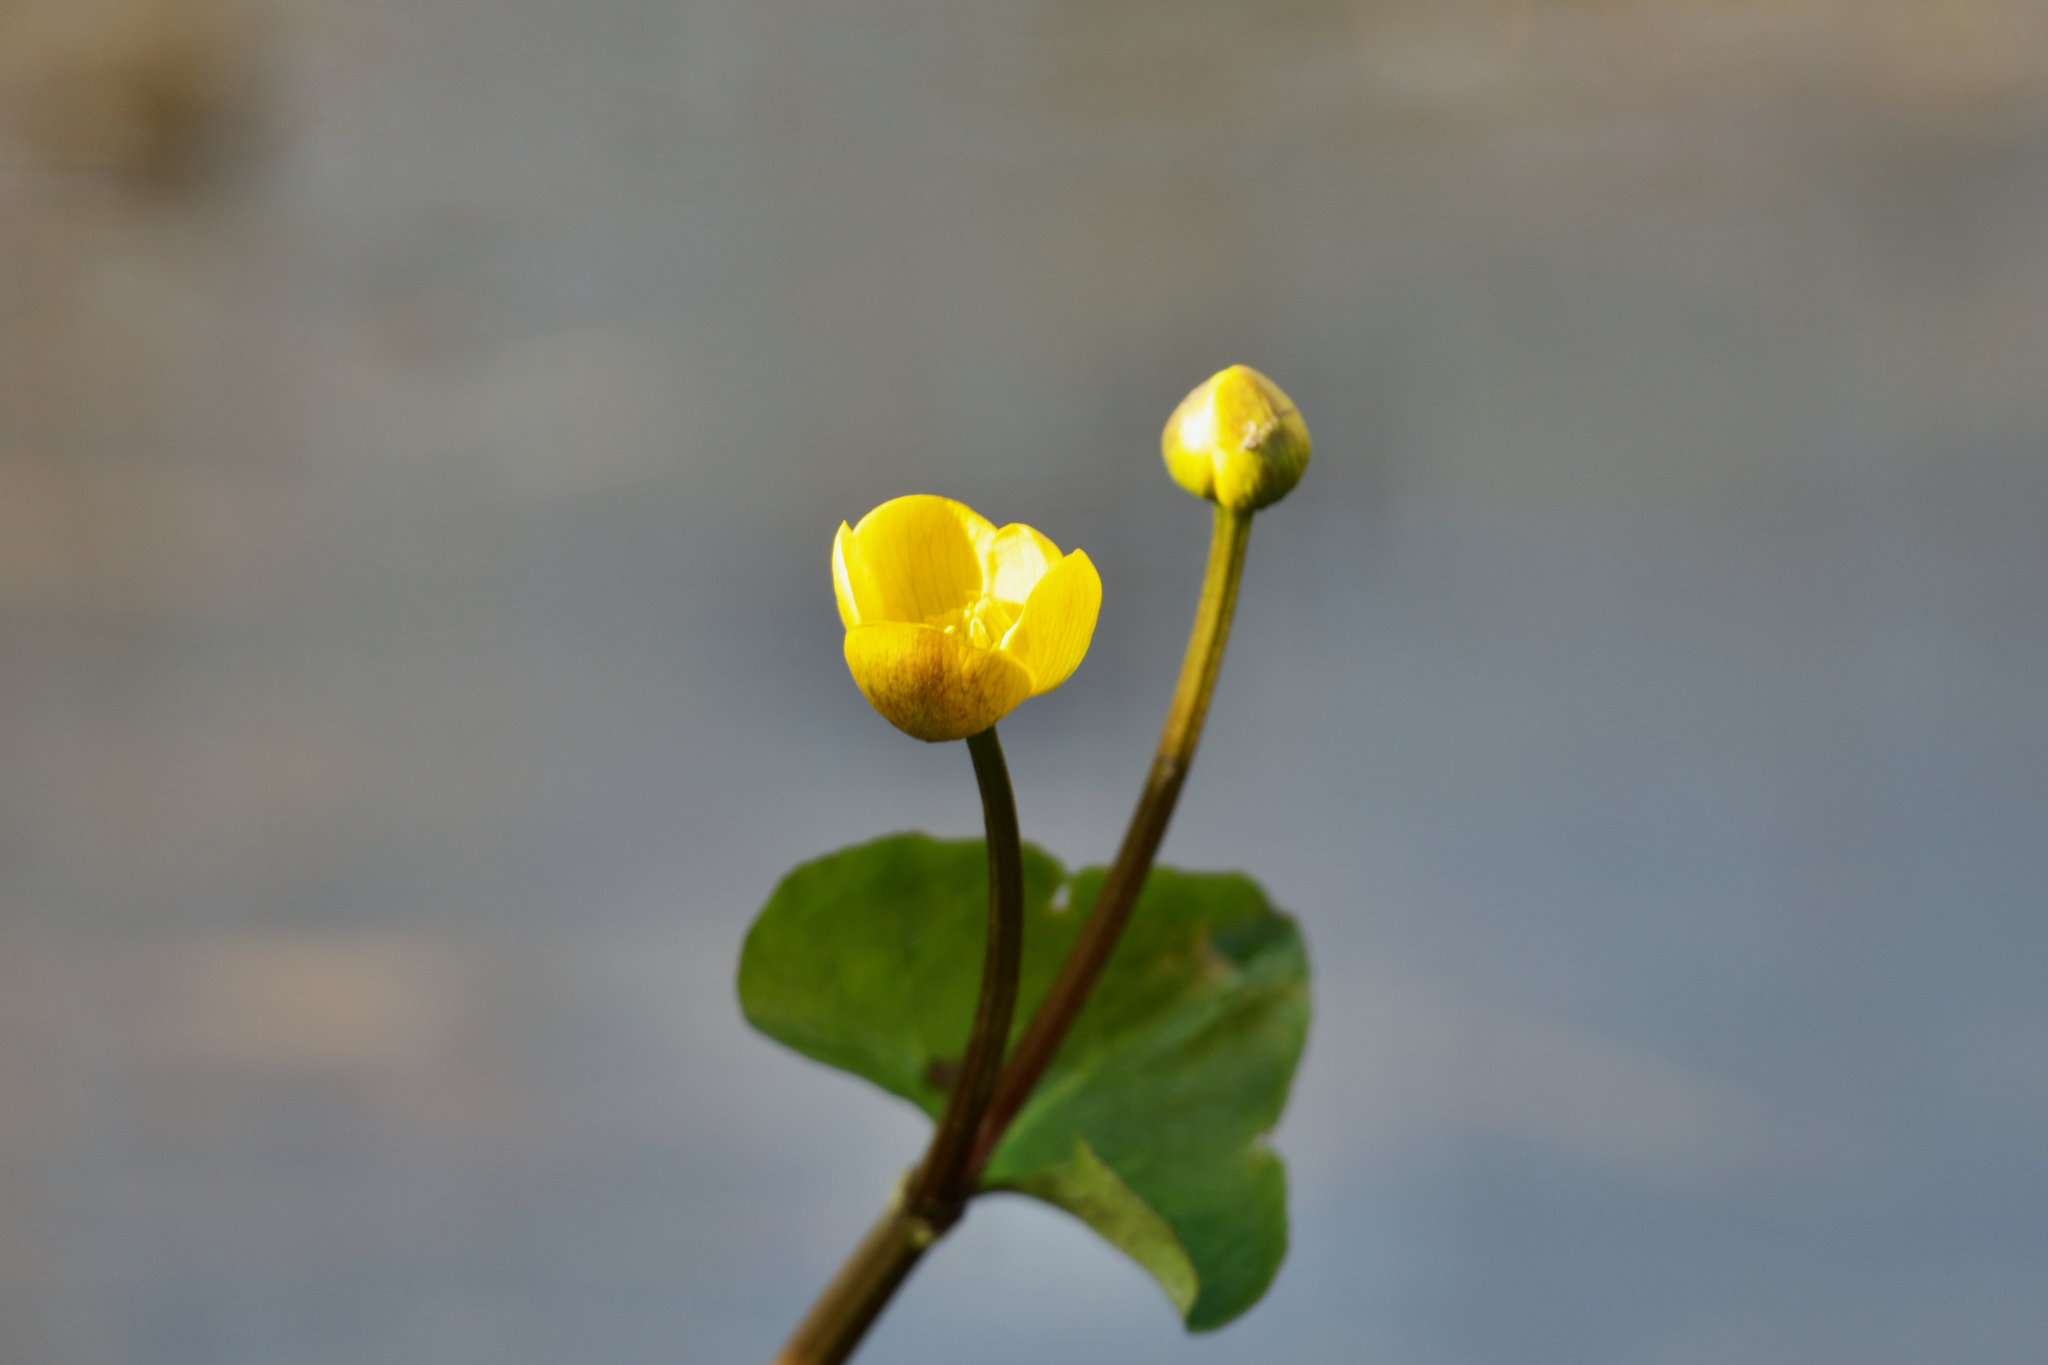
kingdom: Plantae
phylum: Tracheophyta
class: Magnoliopsida
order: Ranunculales
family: Ranunculaceae
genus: Caltha
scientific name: Caltha palustris
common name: Marsh marigold
